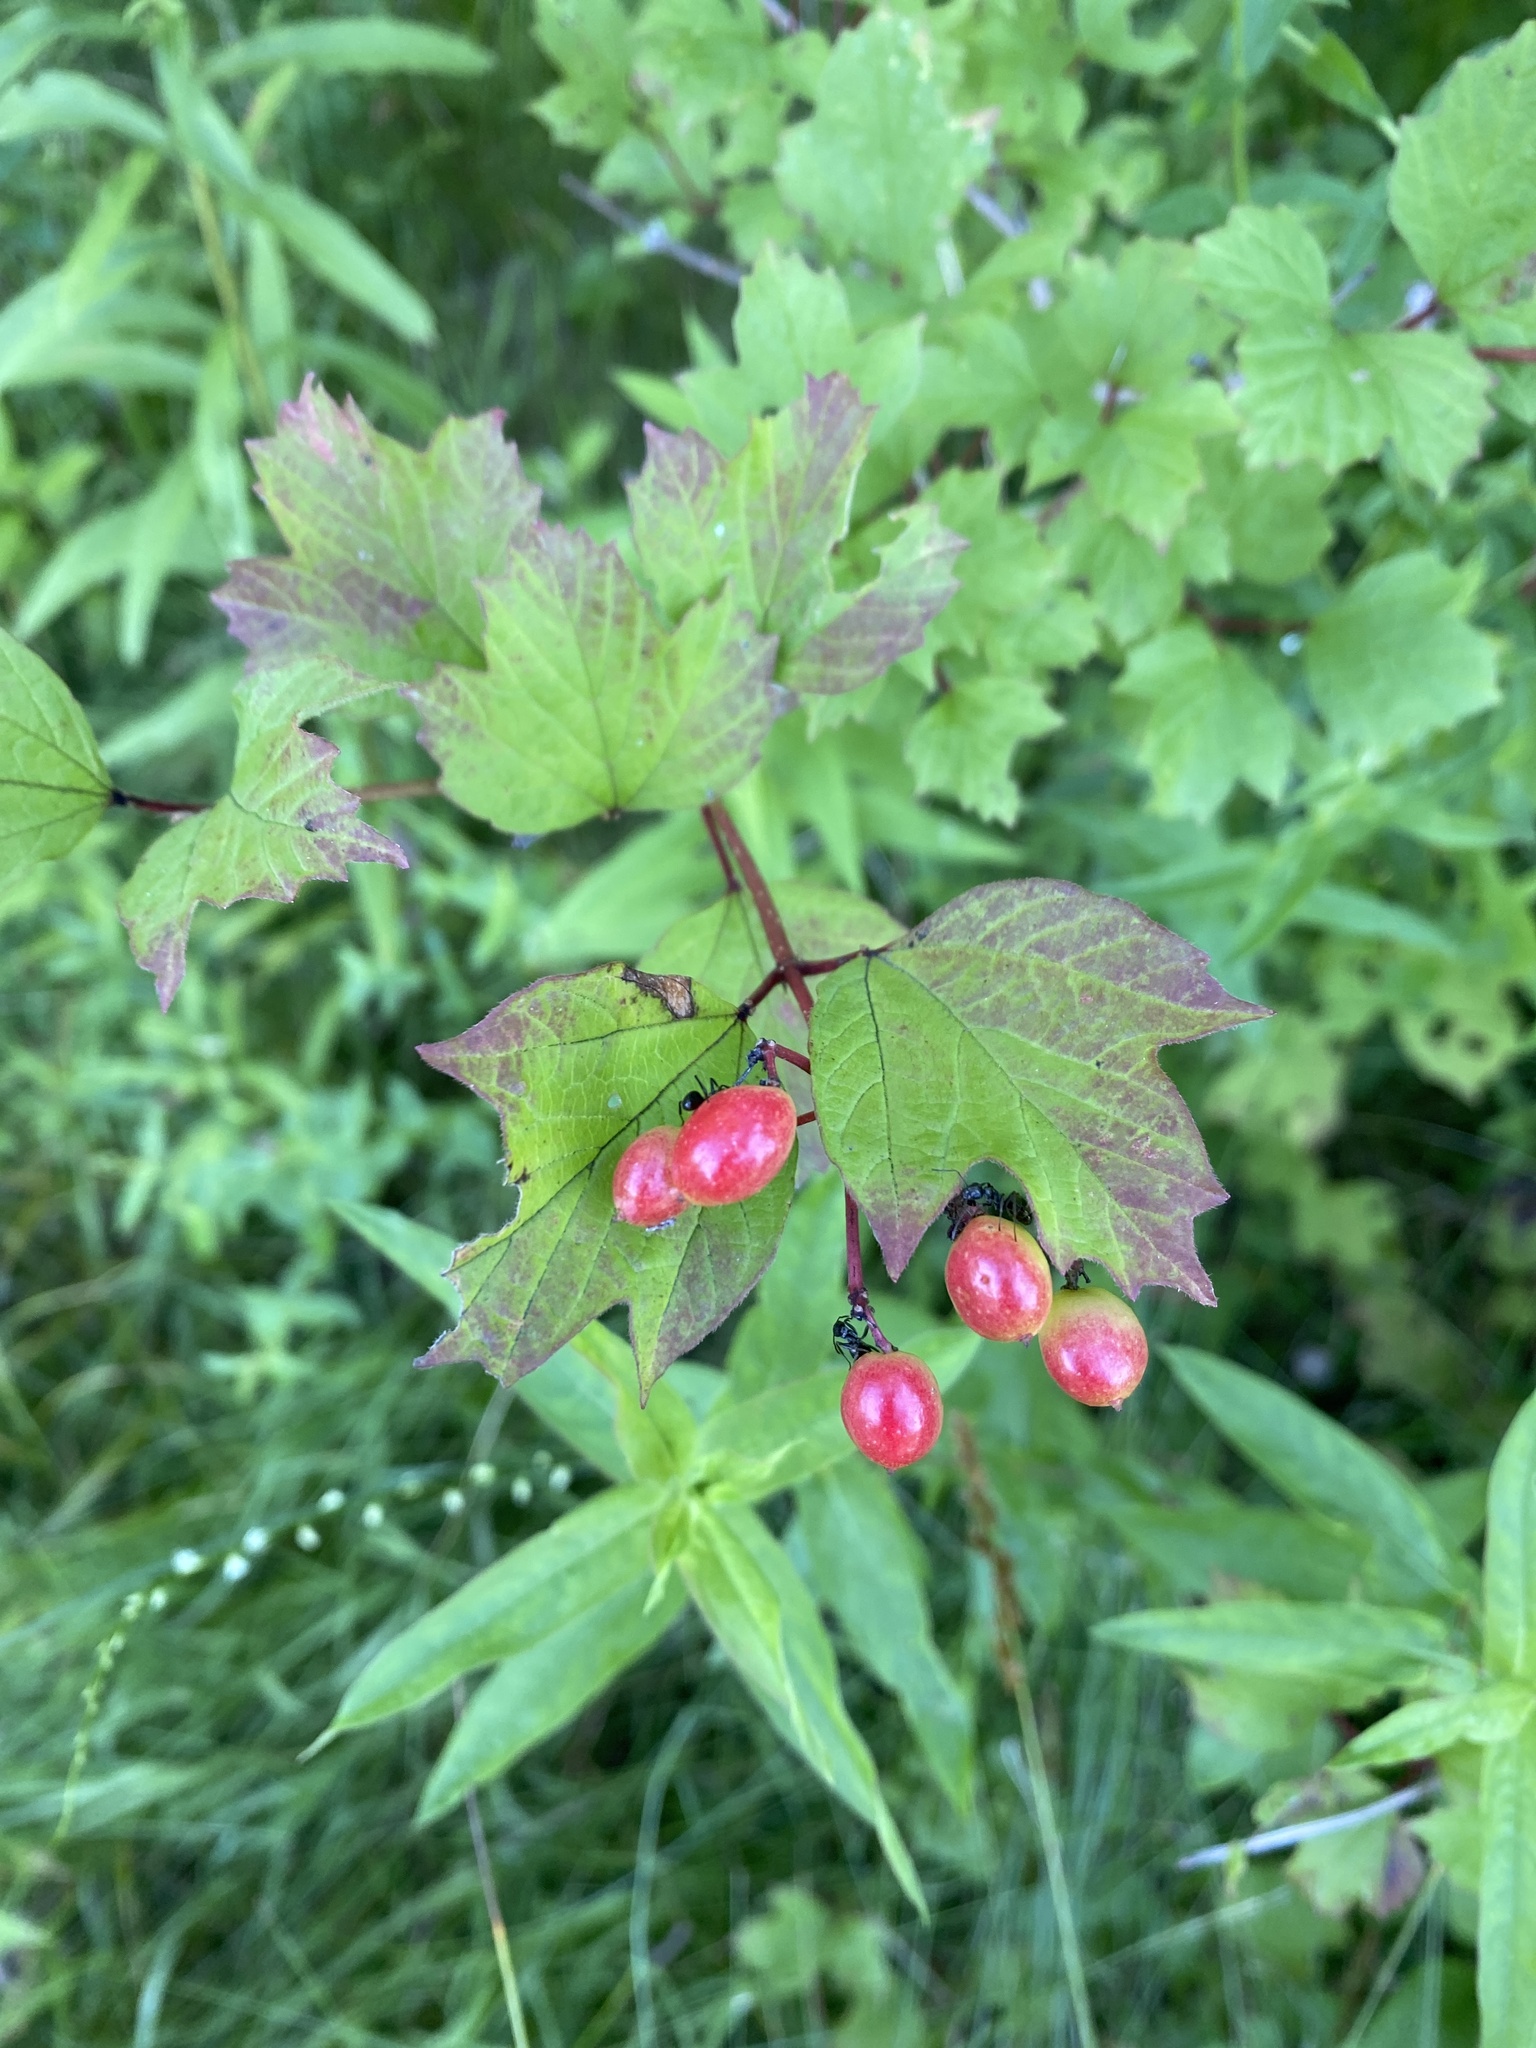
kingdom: Plantae
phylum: Tracheophyta
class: Magnoliopsida
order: Dipsacales
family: Viburnaceae
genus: Viburnum
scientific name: Viburnum opulus
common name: Guelder-rose
